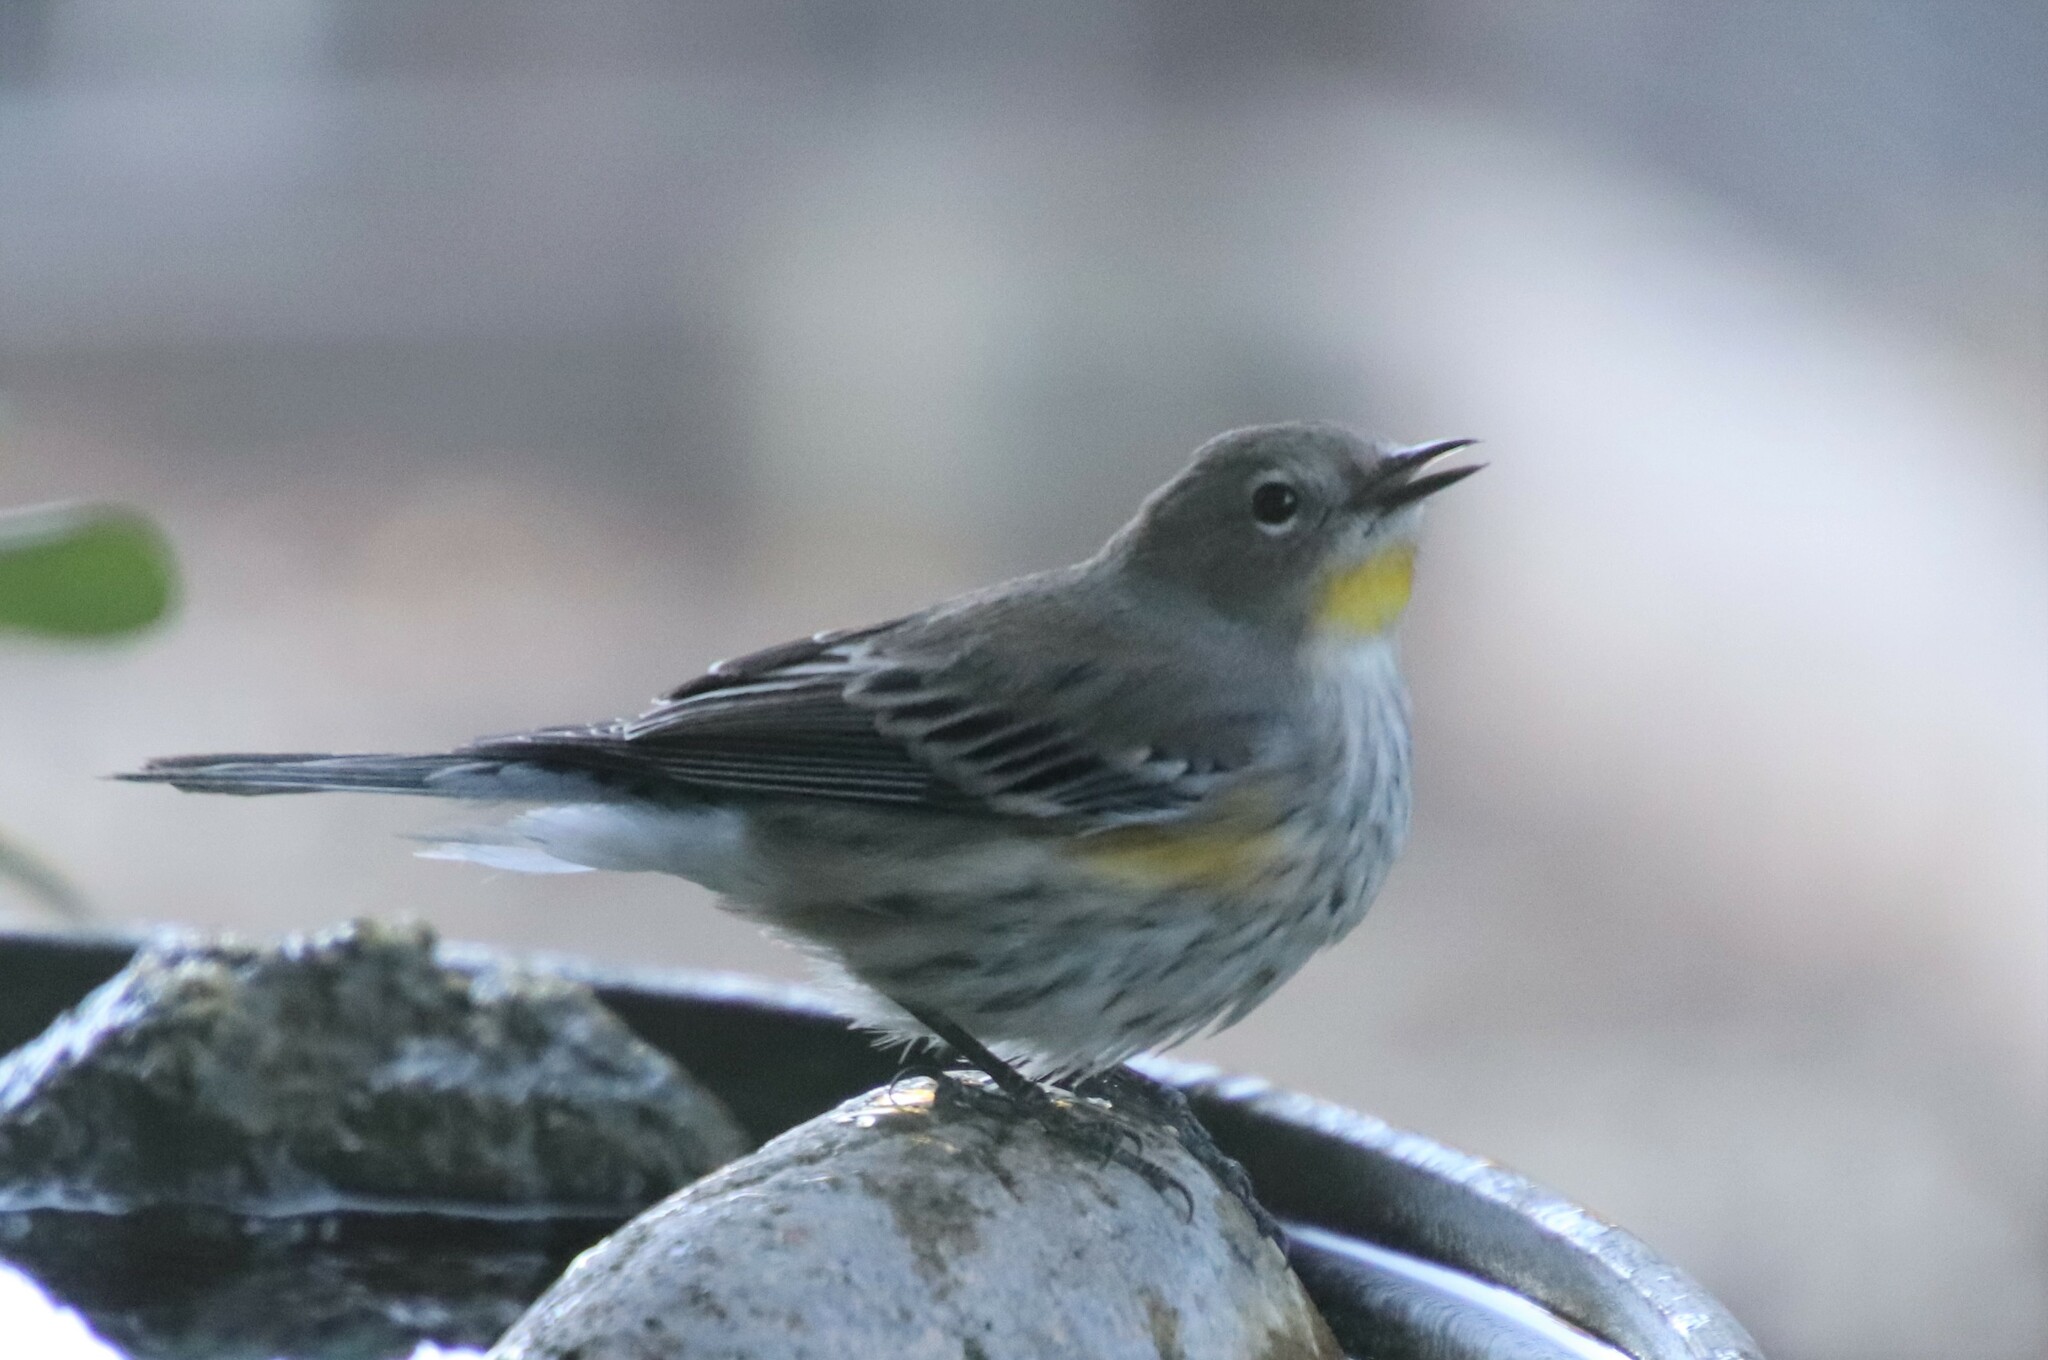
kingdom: Animalia
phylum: Chordata
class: Aves
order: Passeriformes
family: Parulidae
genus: Setophaga
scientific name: Setophaga auduboni
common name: Audubon's warbler
